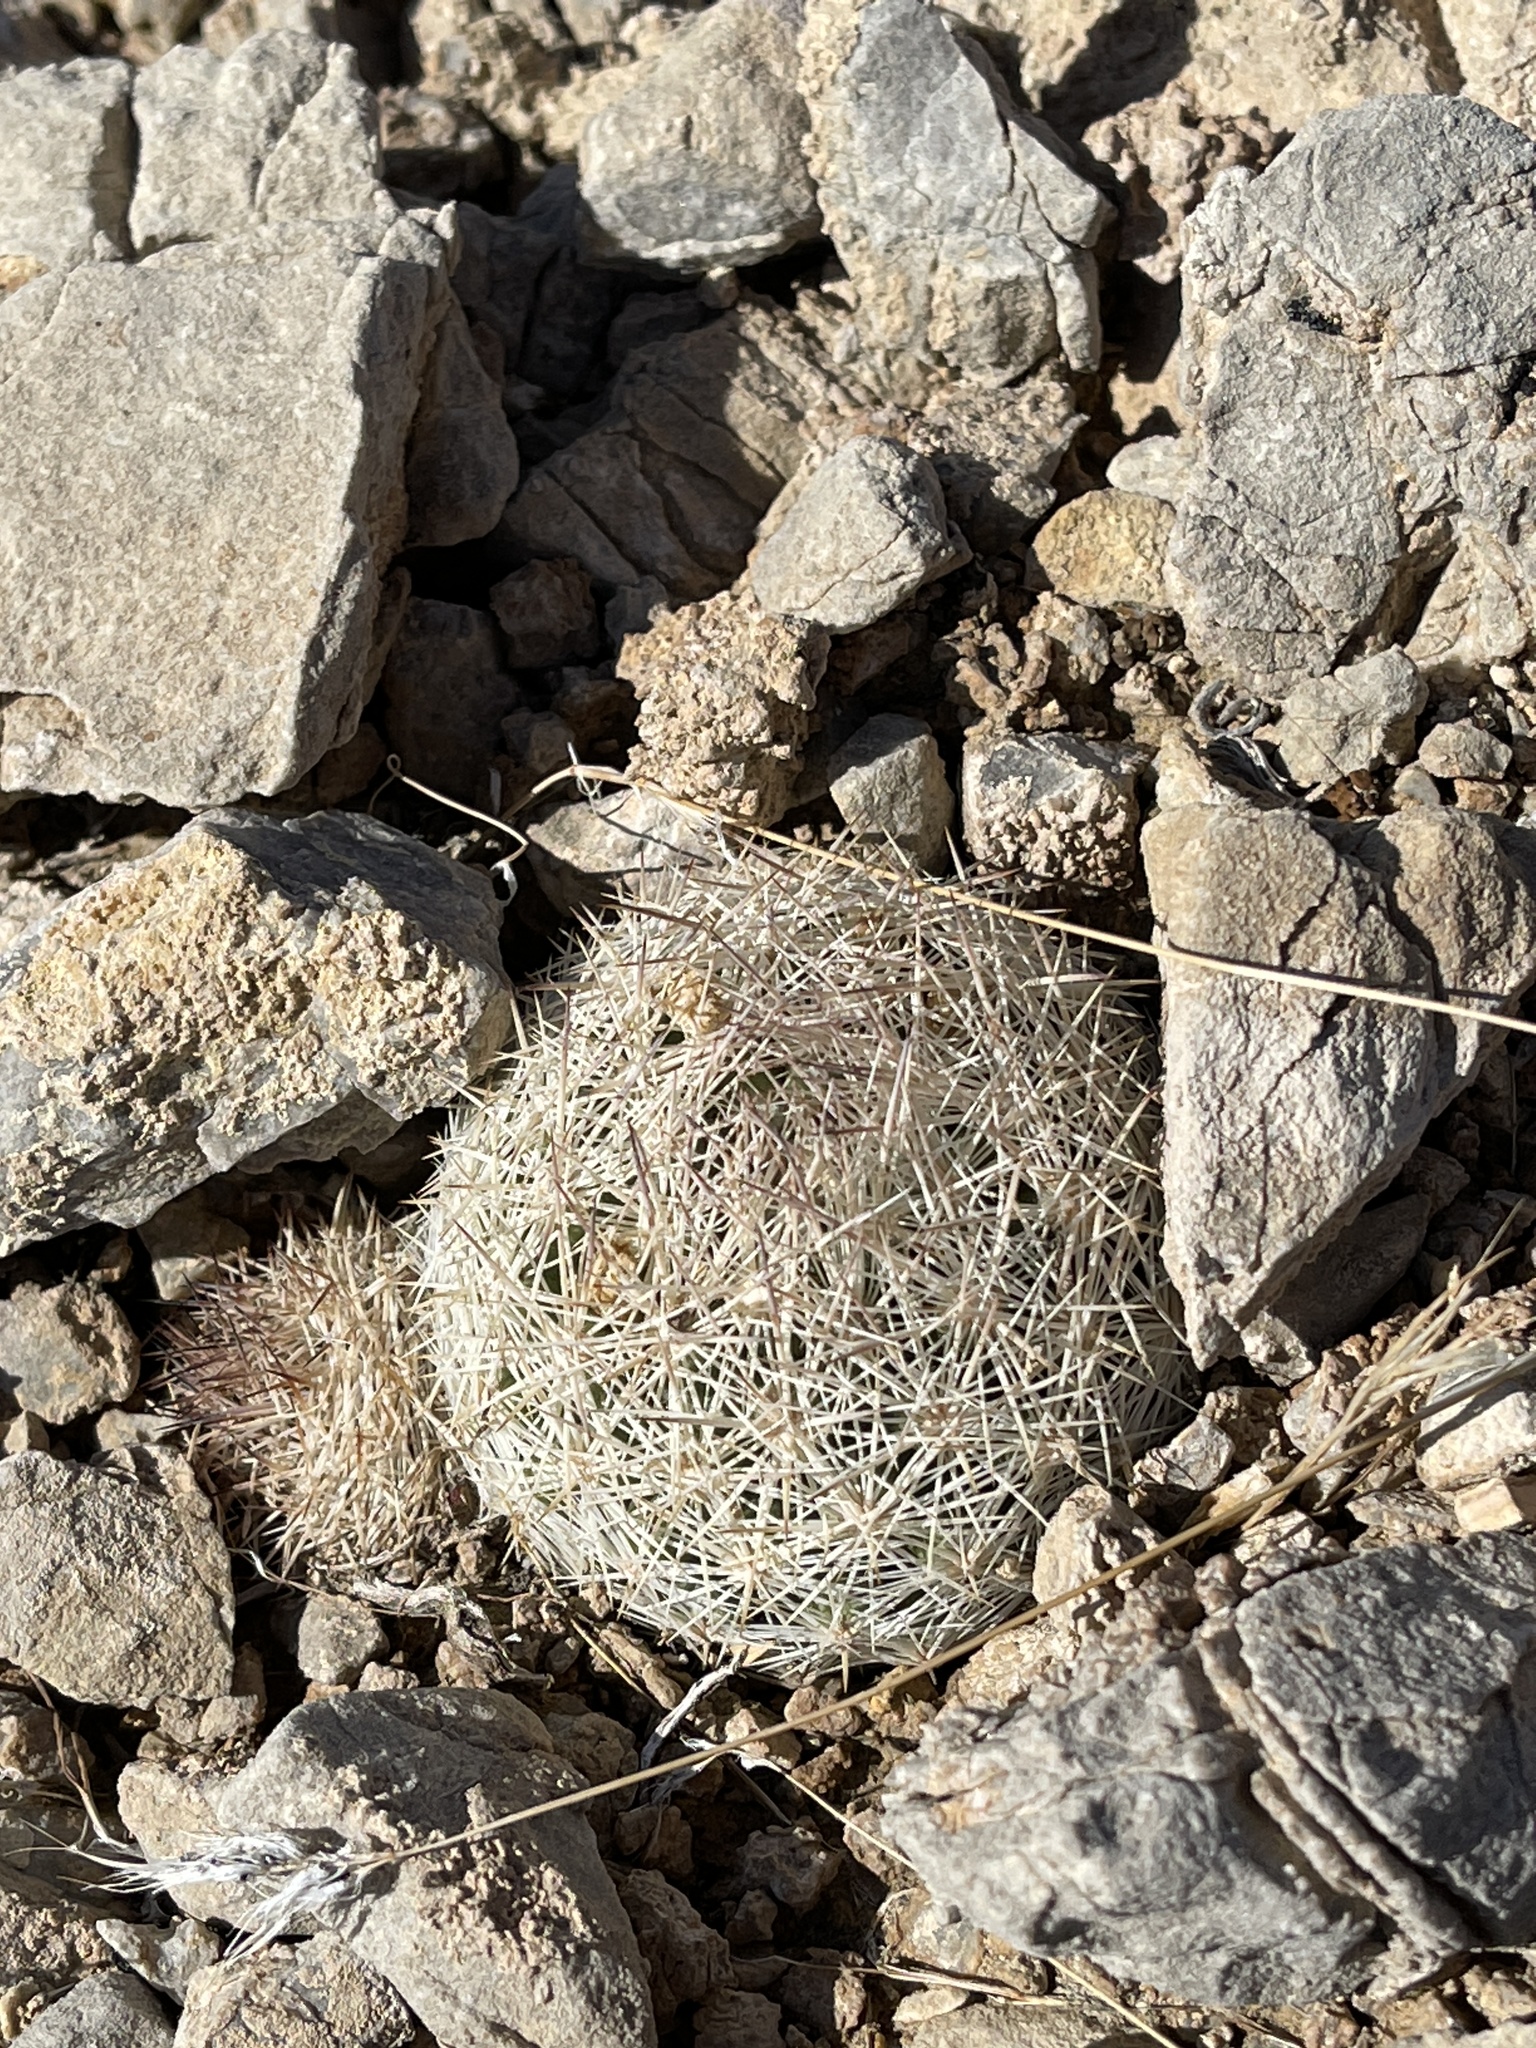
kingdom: Plantae
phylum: Tracheophyta
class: Magnoliopsida
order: Caryophyllales
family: Cactaceae
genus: Pelecyphora
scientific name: Pelecyphora dasyacantha
